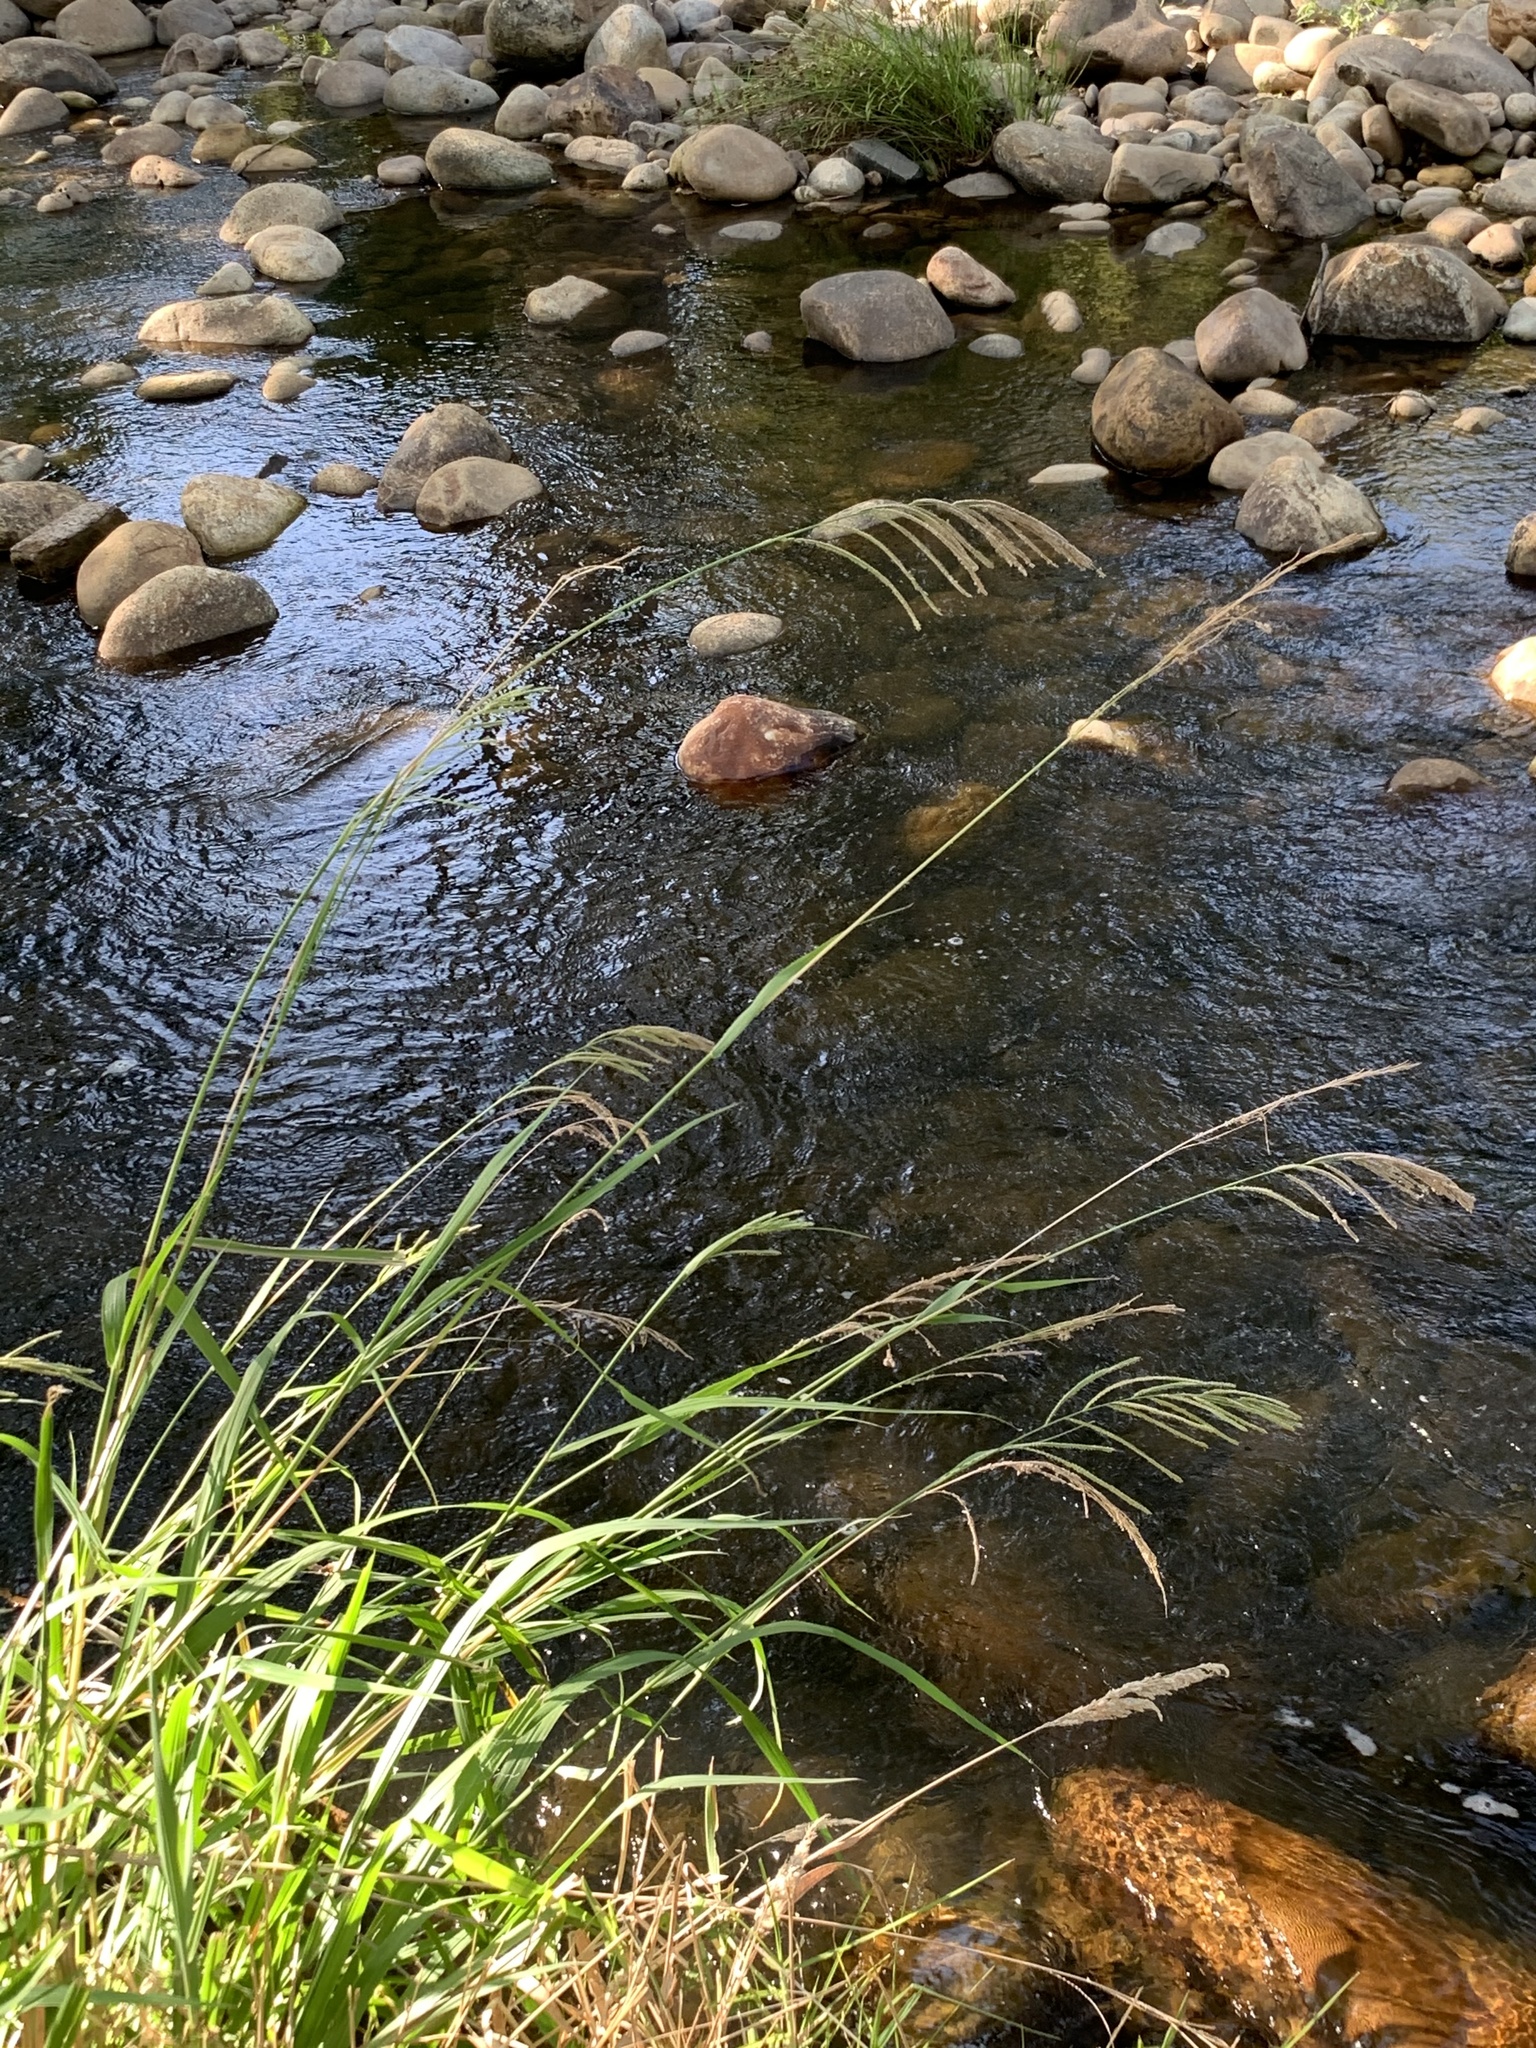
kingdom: Plantae
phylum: Tracheophyta
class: Liliopsida
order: Poales
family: Poaceae
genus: Paspalum
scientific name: Paspalum urvillei
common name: Vasey's grass
